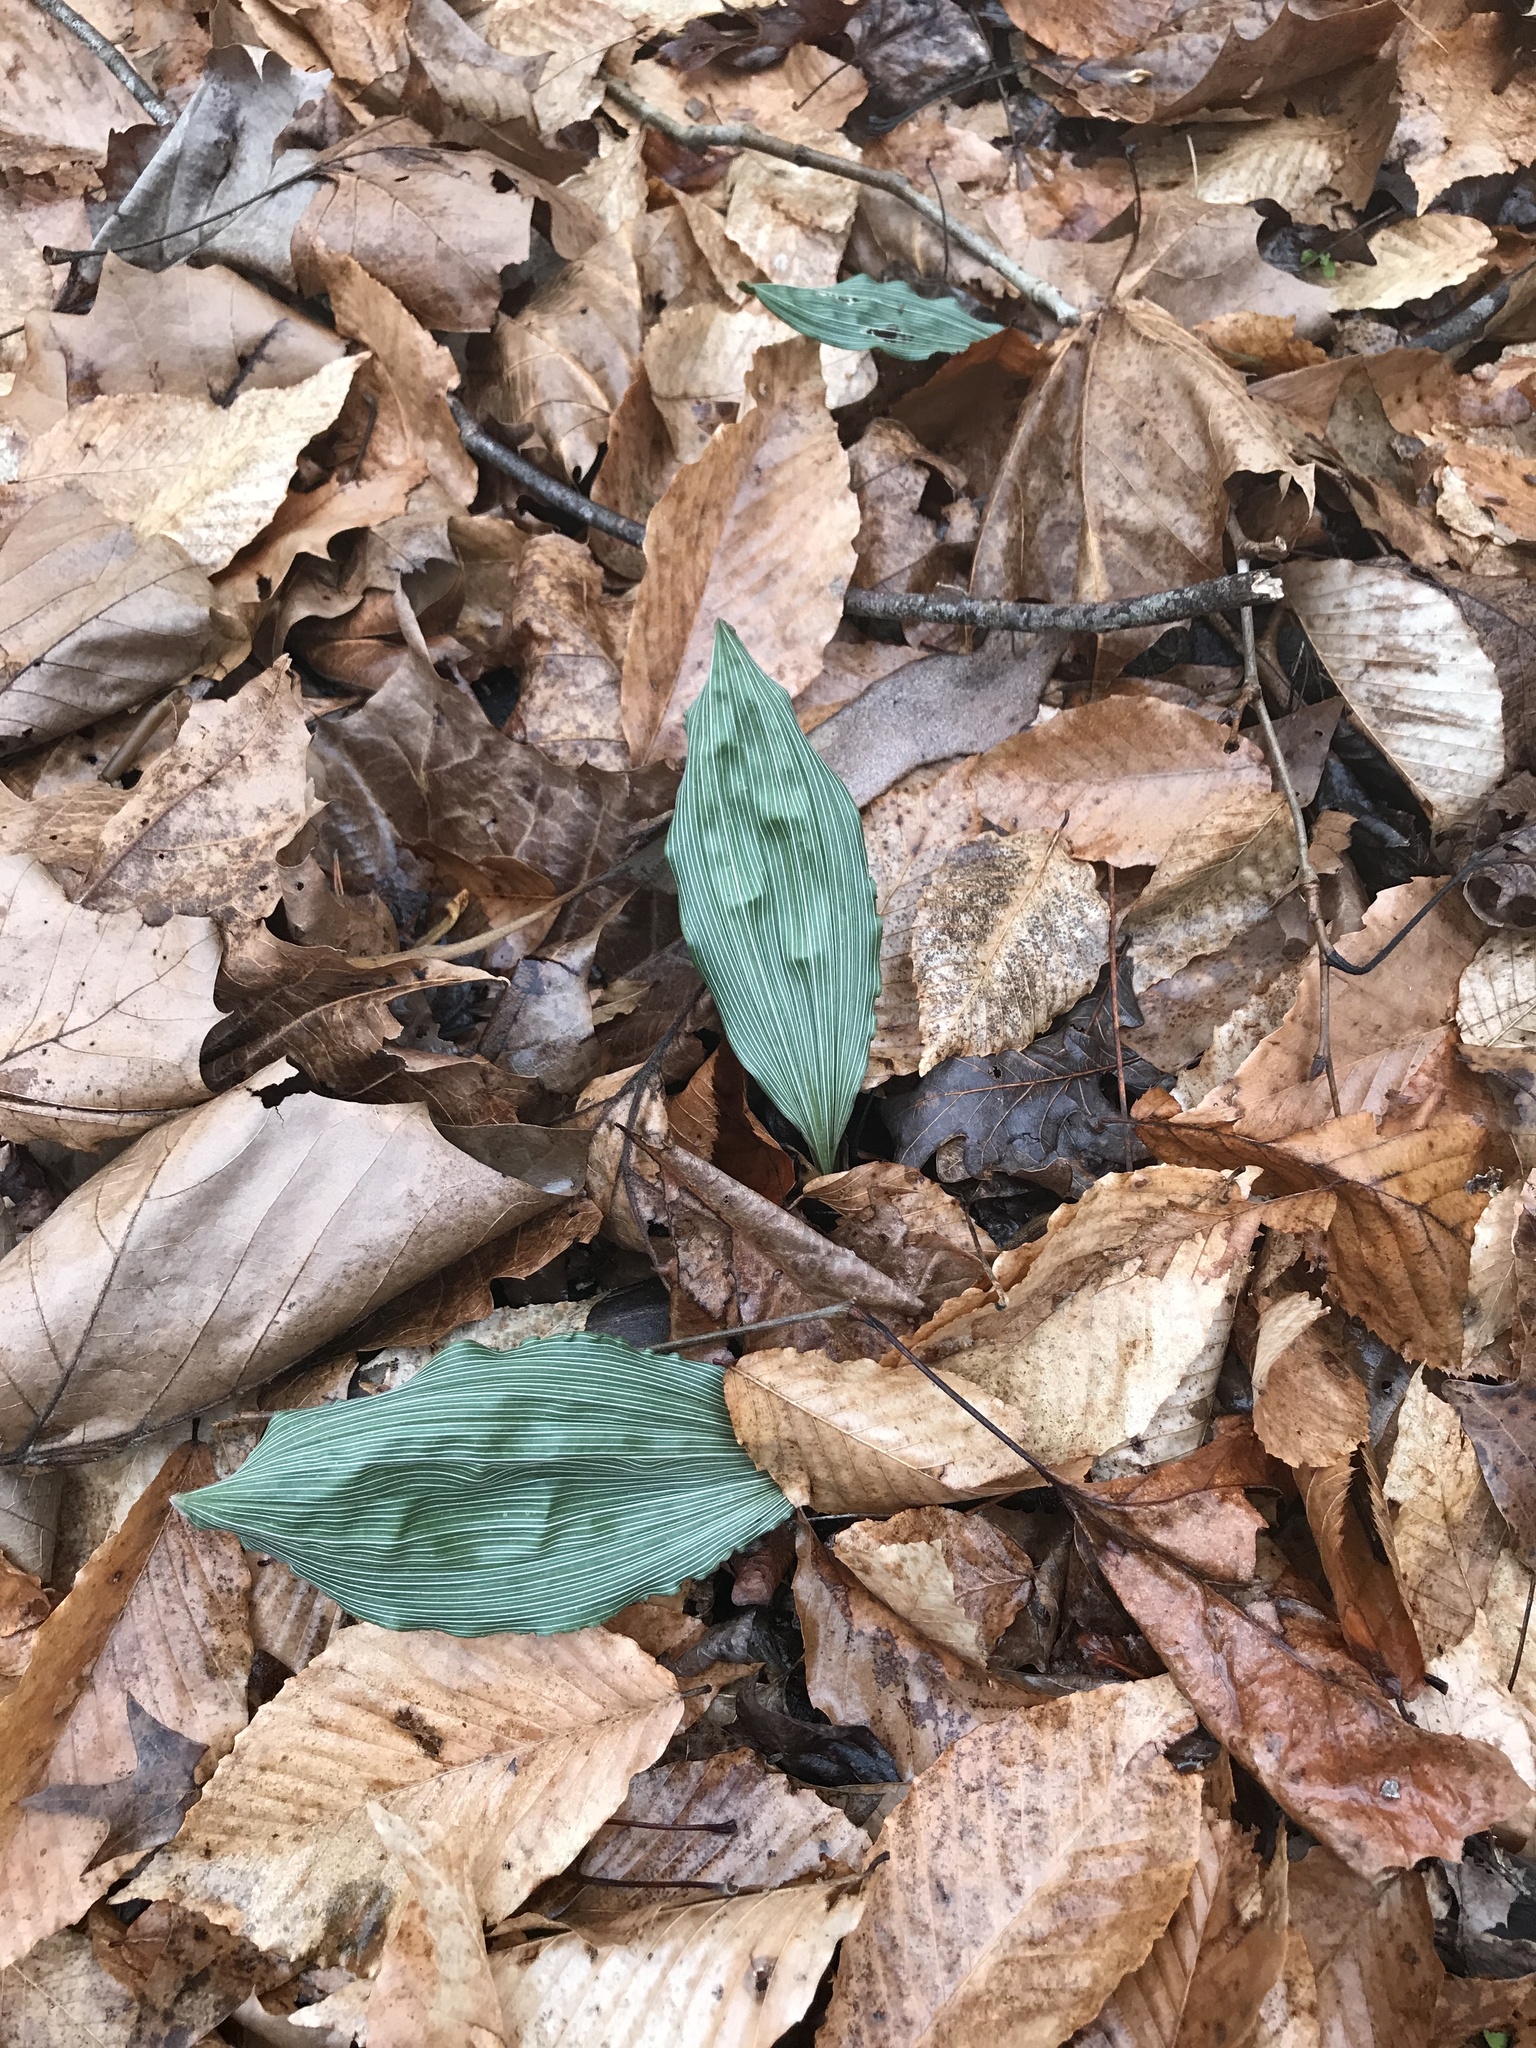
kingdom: Plantae
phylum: Tracheophyta
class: Liliopsida
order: Asparagales
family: Orchidaceae
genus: Aplectrum
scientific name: Aplectrum hyemale
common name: Adam-and-eve
